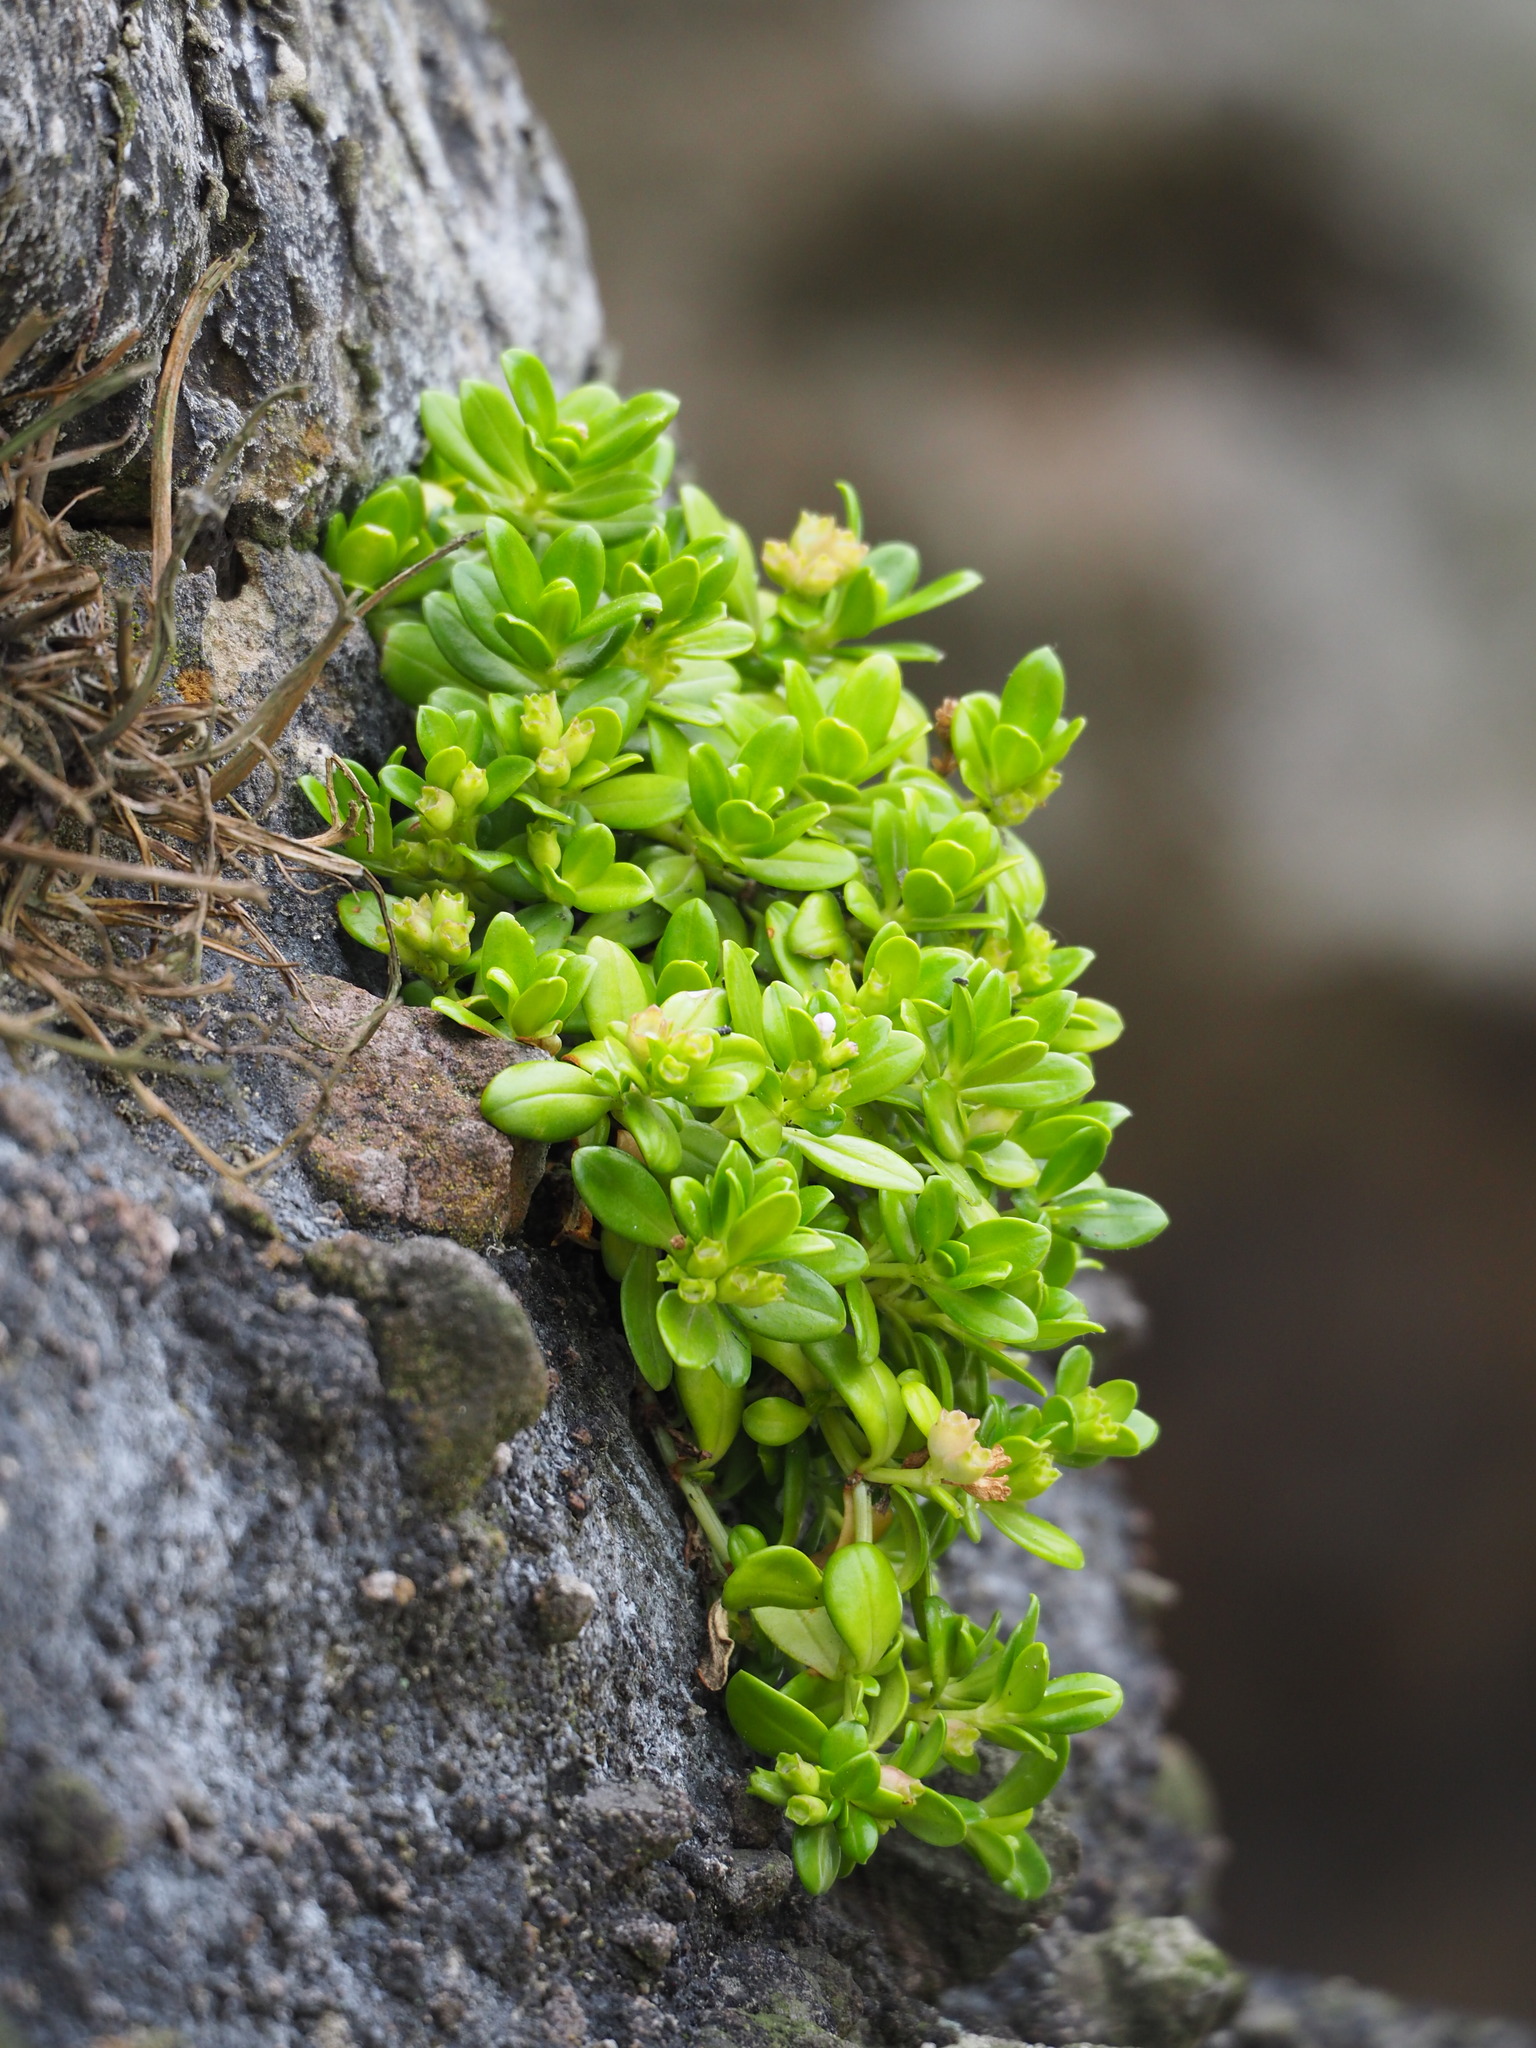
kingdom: Plantae
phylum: Tracheophyta
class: Magnoliopsida
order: Gentianales
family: Rubiaceae
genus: Leptopetalum
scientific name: Leptopetalum strigulosum
